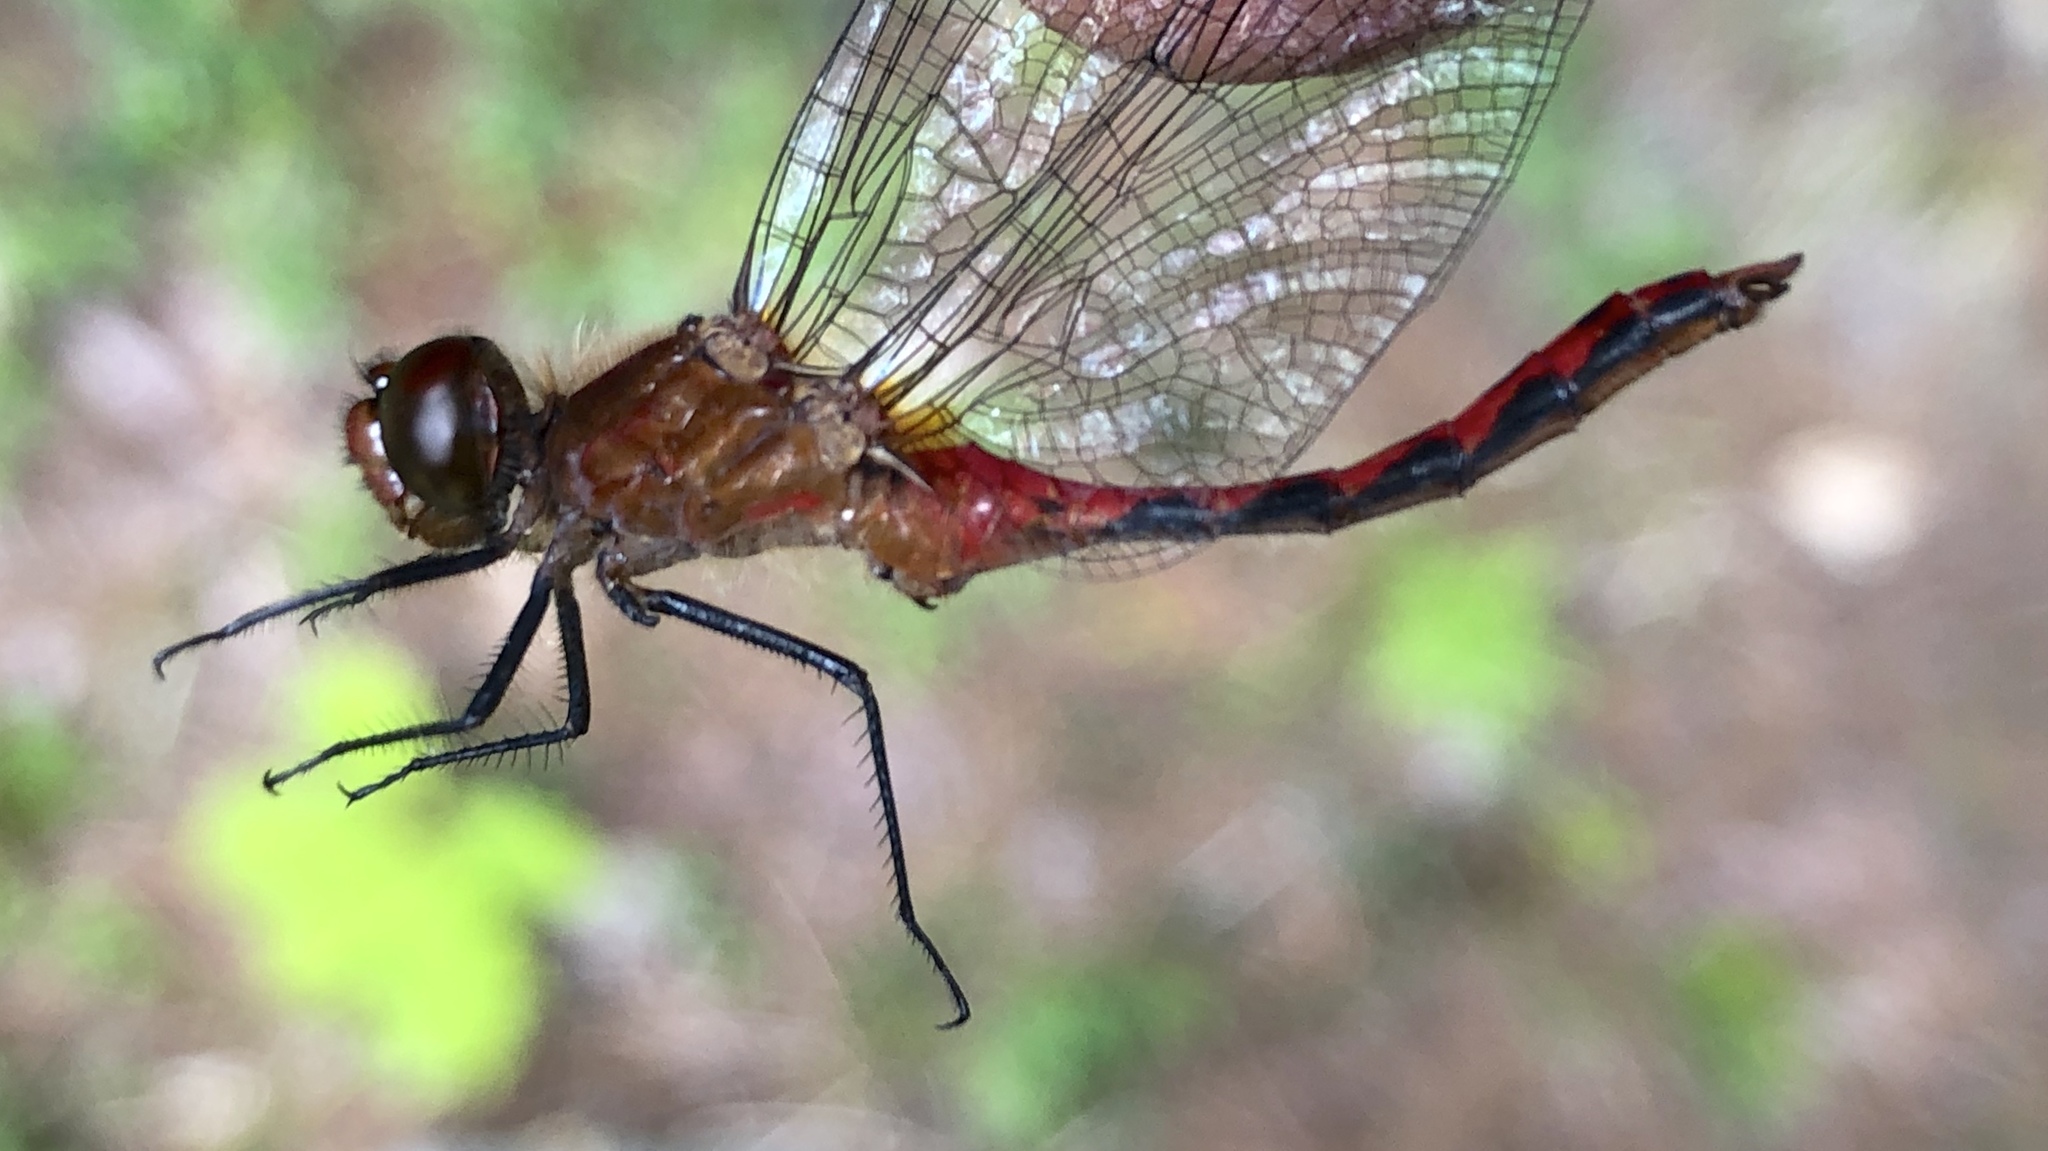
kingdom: Animalia
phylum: Arthropoda
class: Insecta
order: Odonata
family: Libellulidae
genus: Sympetrum
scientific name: Sympetrum internum
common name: Cherry-faced meadowhawk
